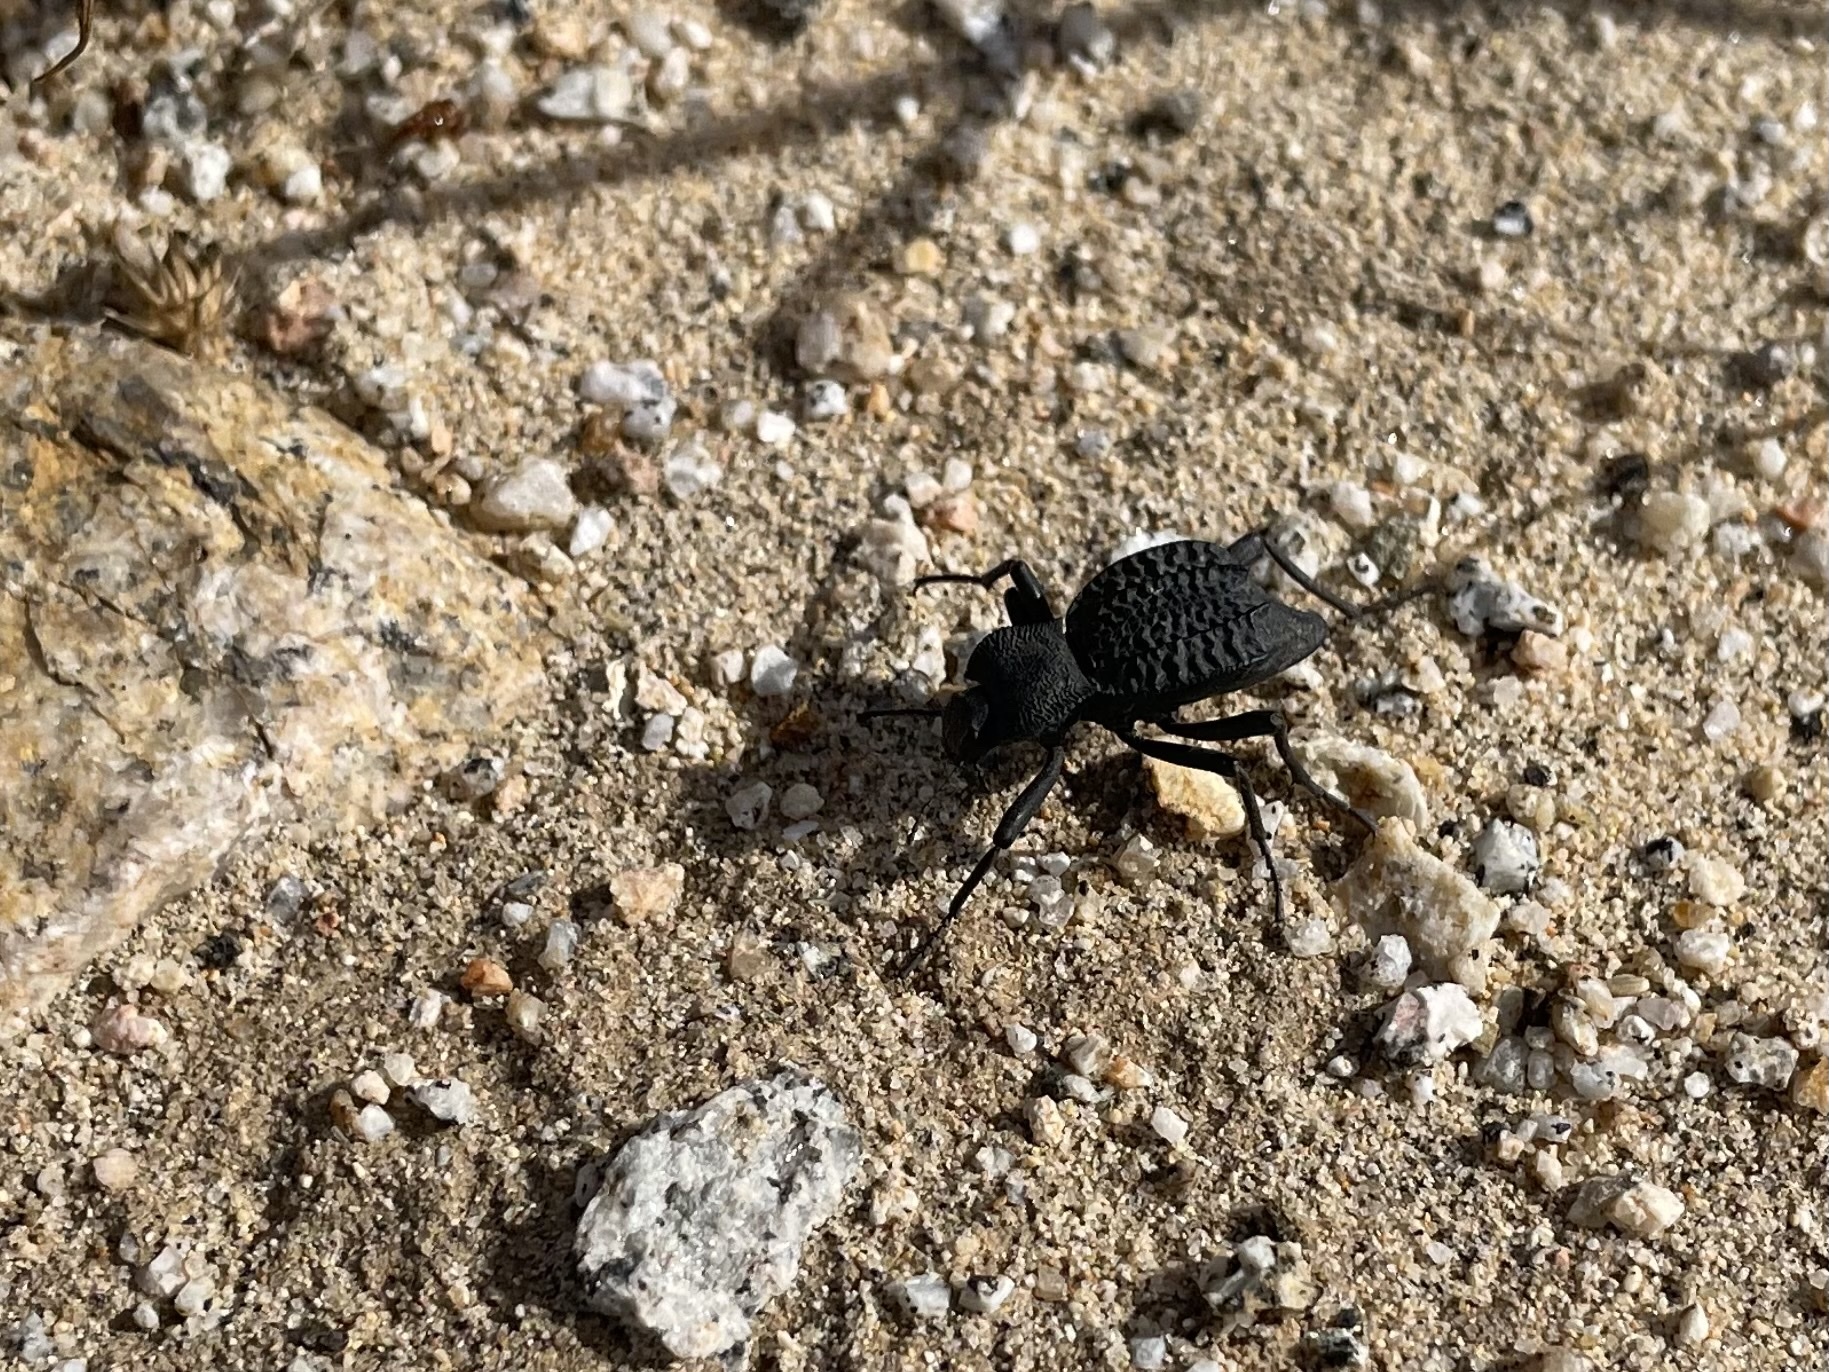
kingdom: Animalia
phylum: Arthropoda
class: Insecta
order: Coleoptera
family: Tenebrionidae
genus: Philolithus
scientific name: Philolithus aegrotus
